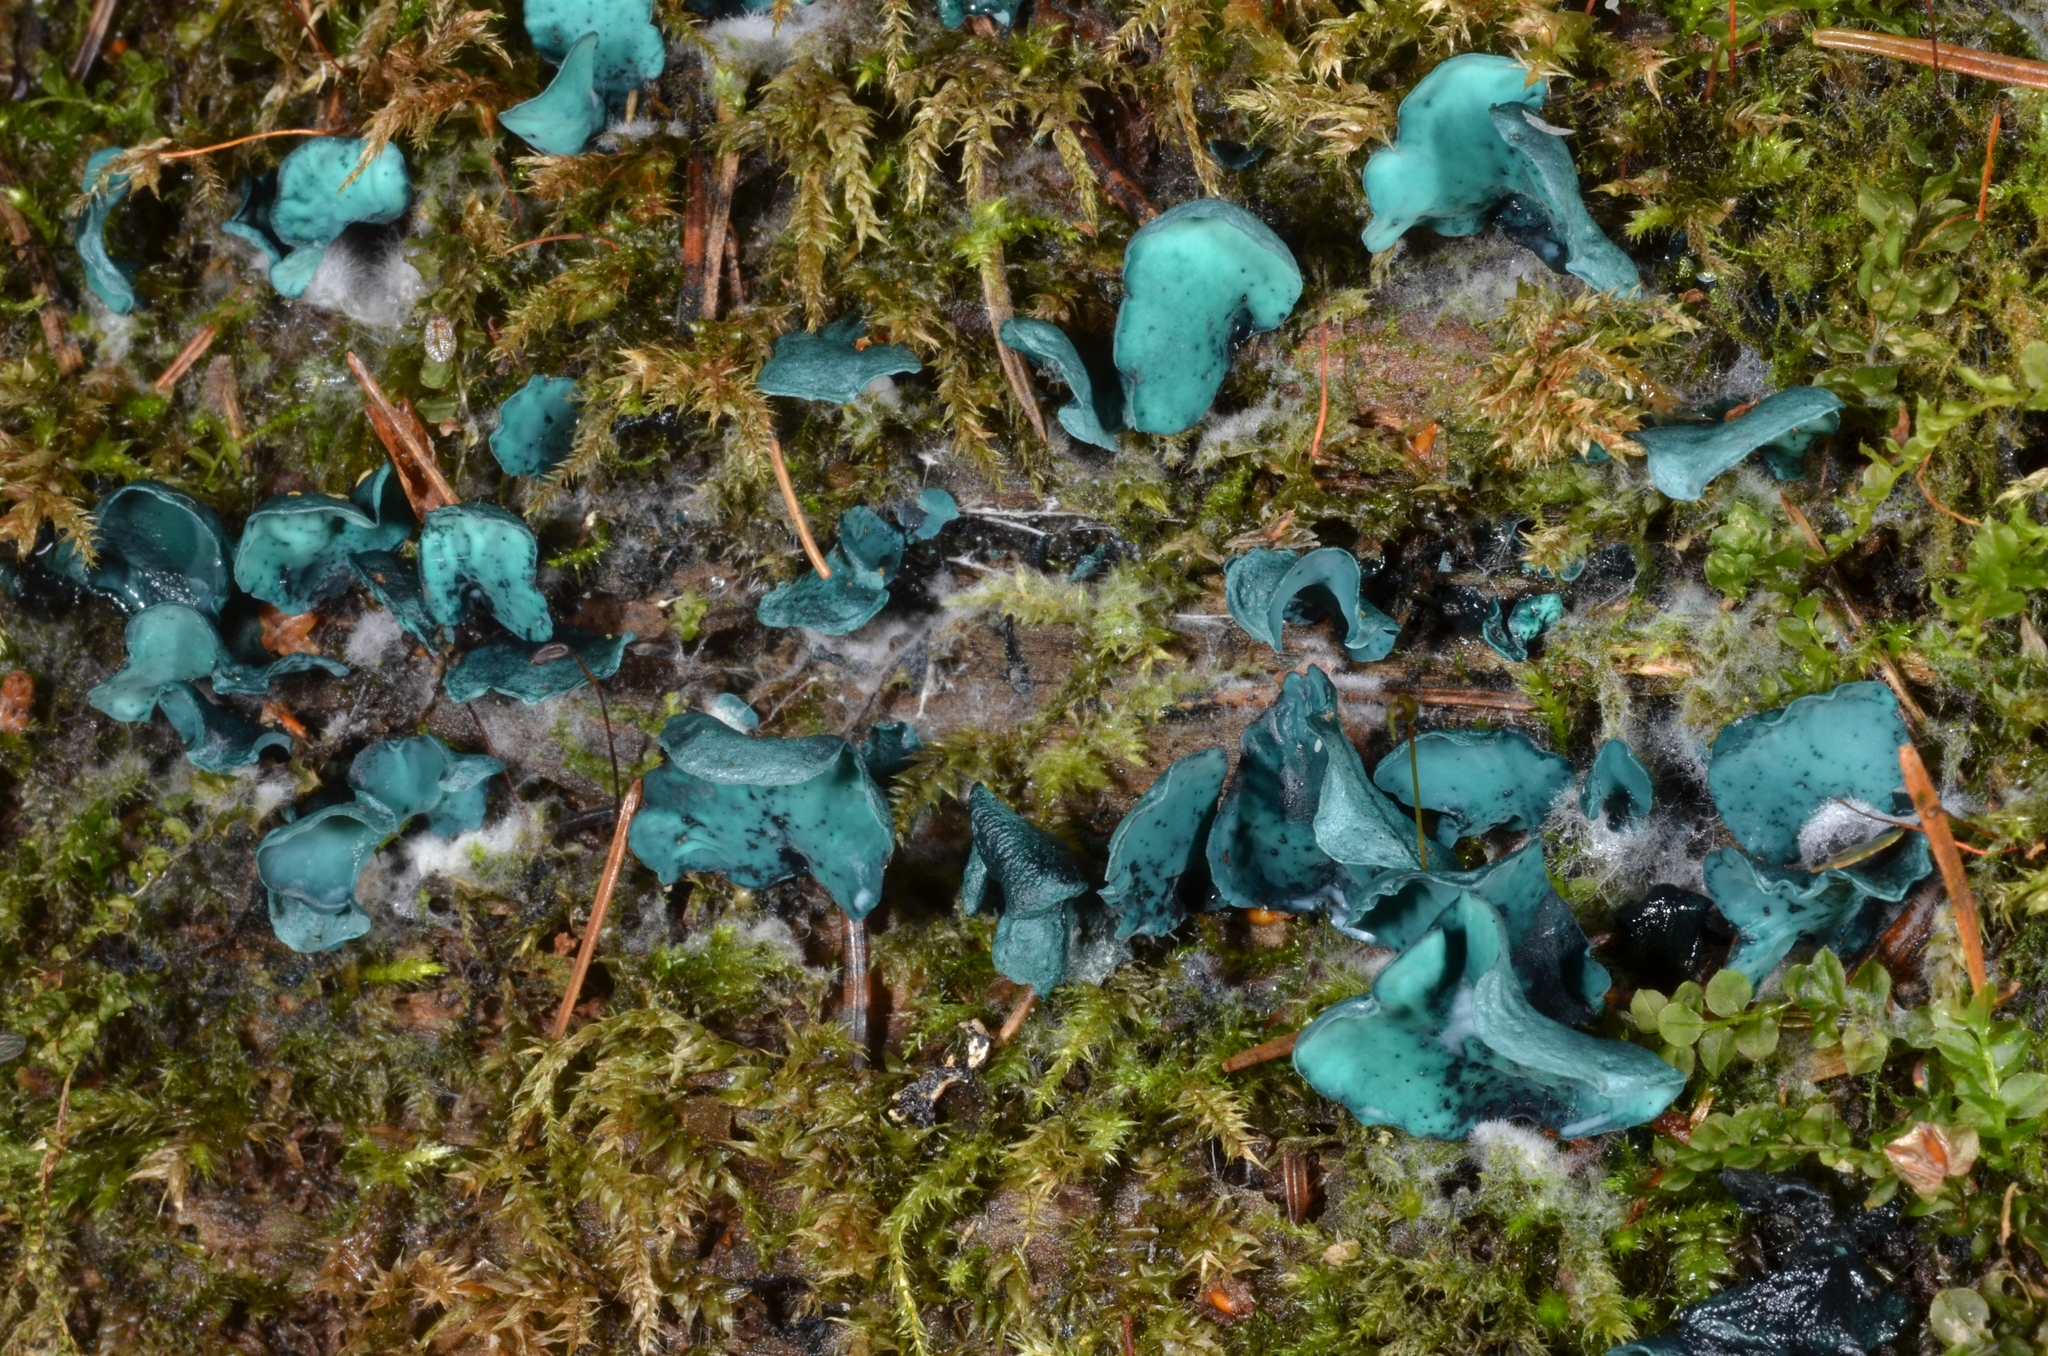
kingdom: Fungi
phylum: Ascomycota
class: Leotiomycetes
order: Helotiales
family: Chlorociboriaceae
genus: Chlorociboria
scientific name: Chlorociboria aeruginascens
